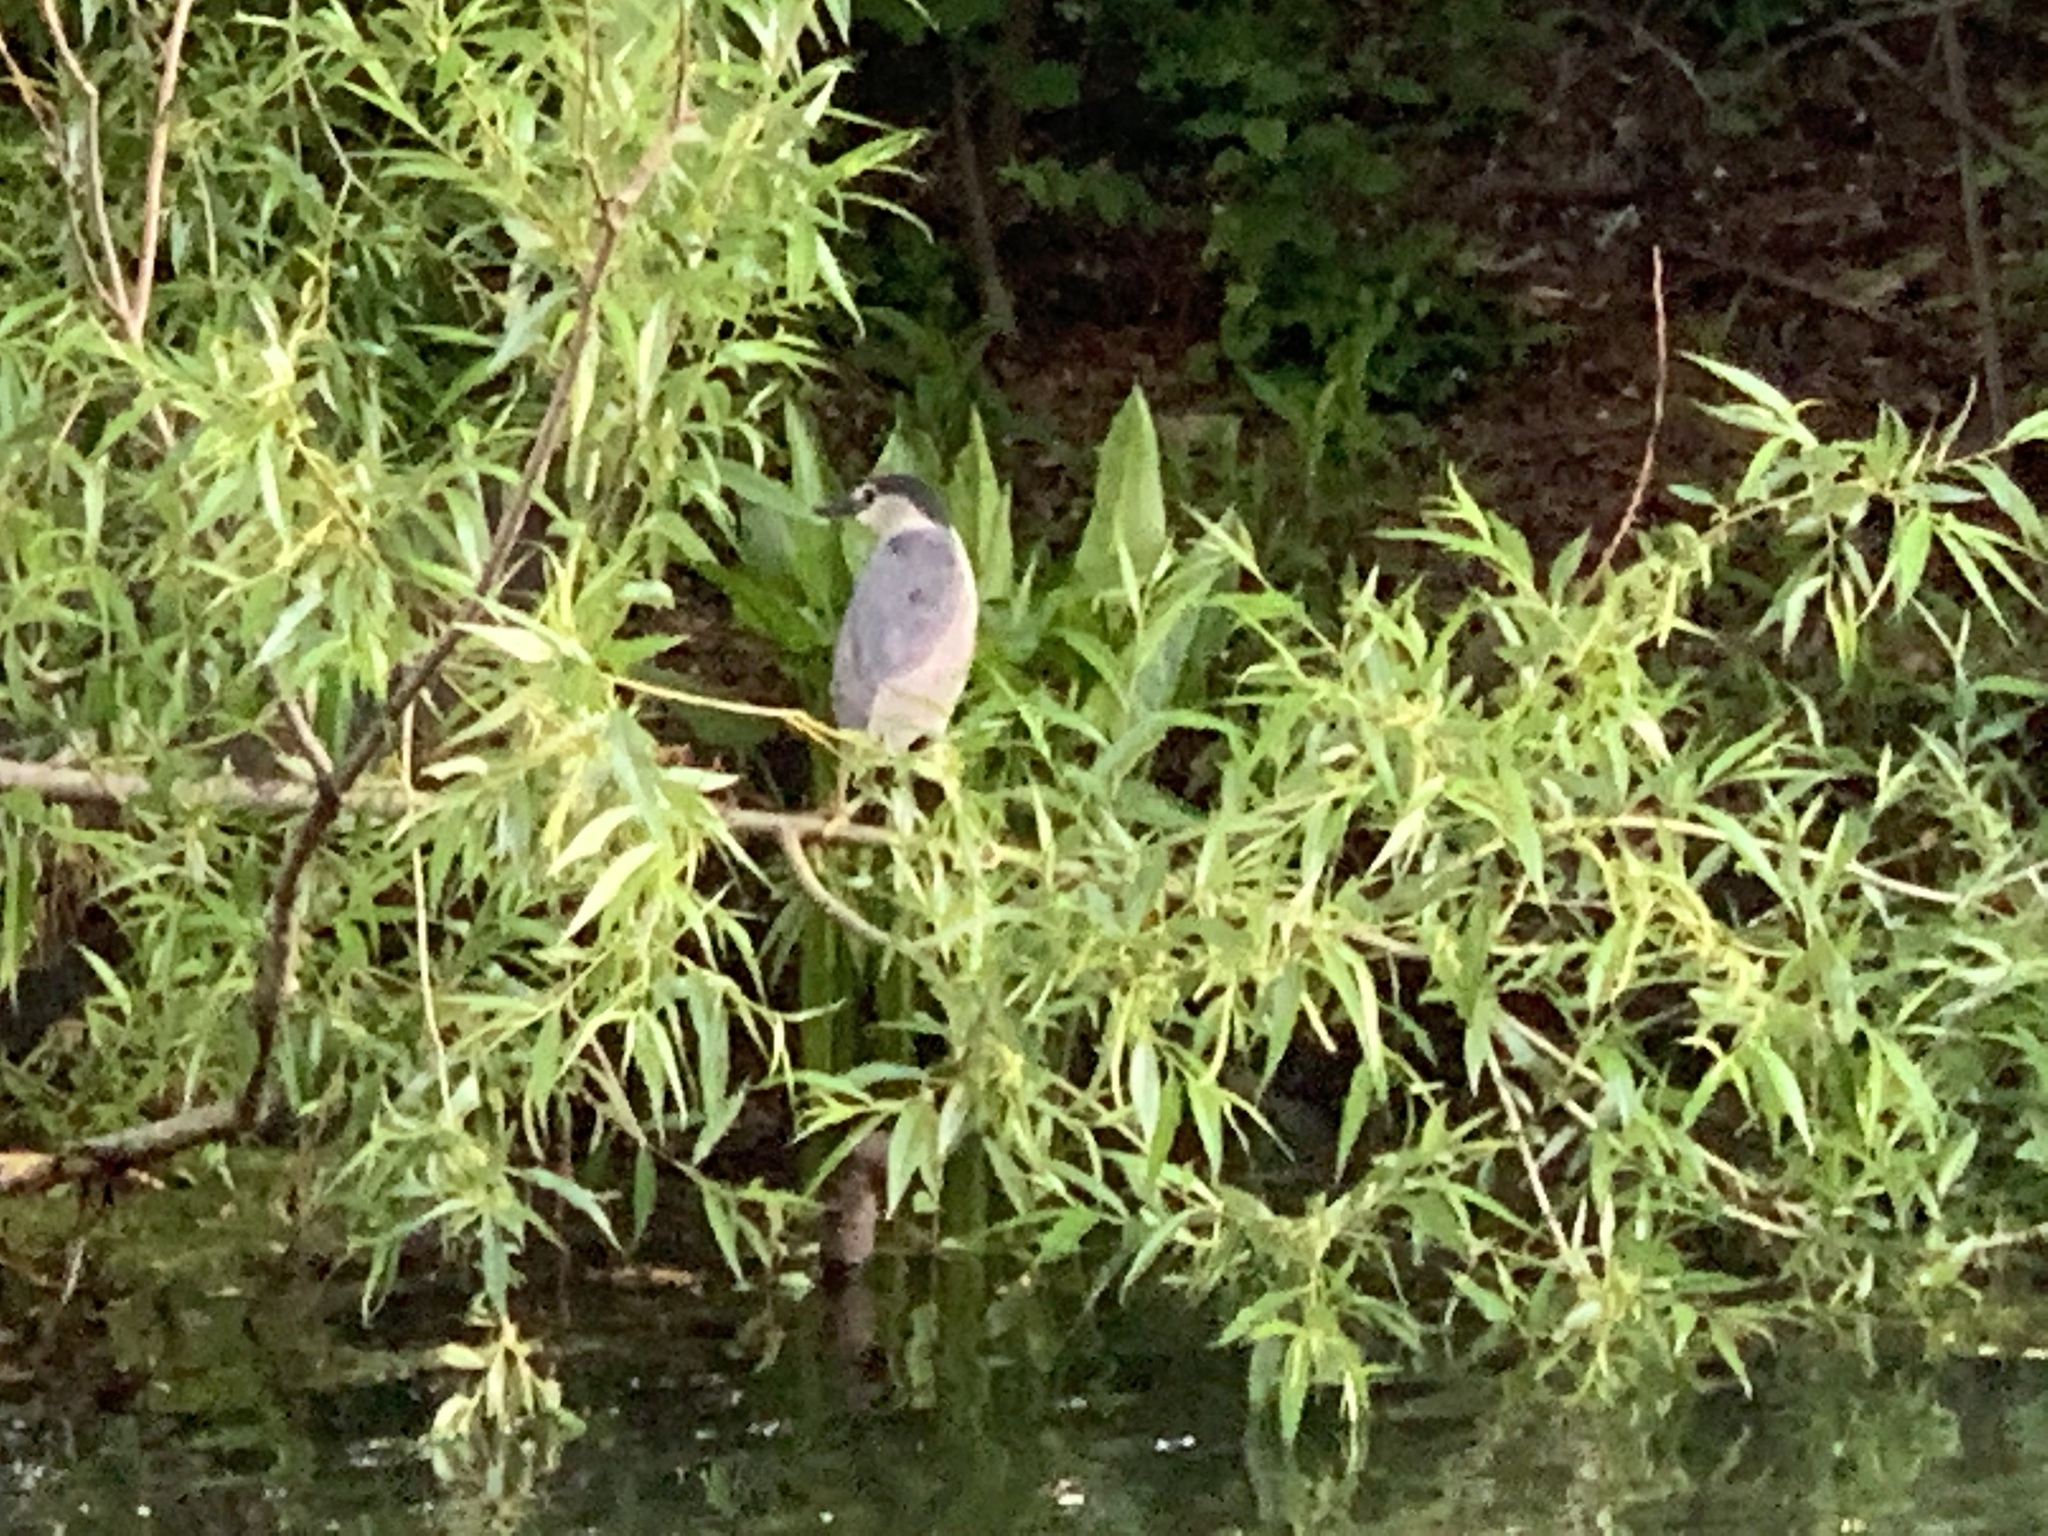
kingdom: Animalia
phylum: Chordata
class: Aves
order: Pelecaniformes
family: Ardeidae
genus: Nycticorax
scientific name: Nycticorax nycticorax
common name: Black-crowned night heron
